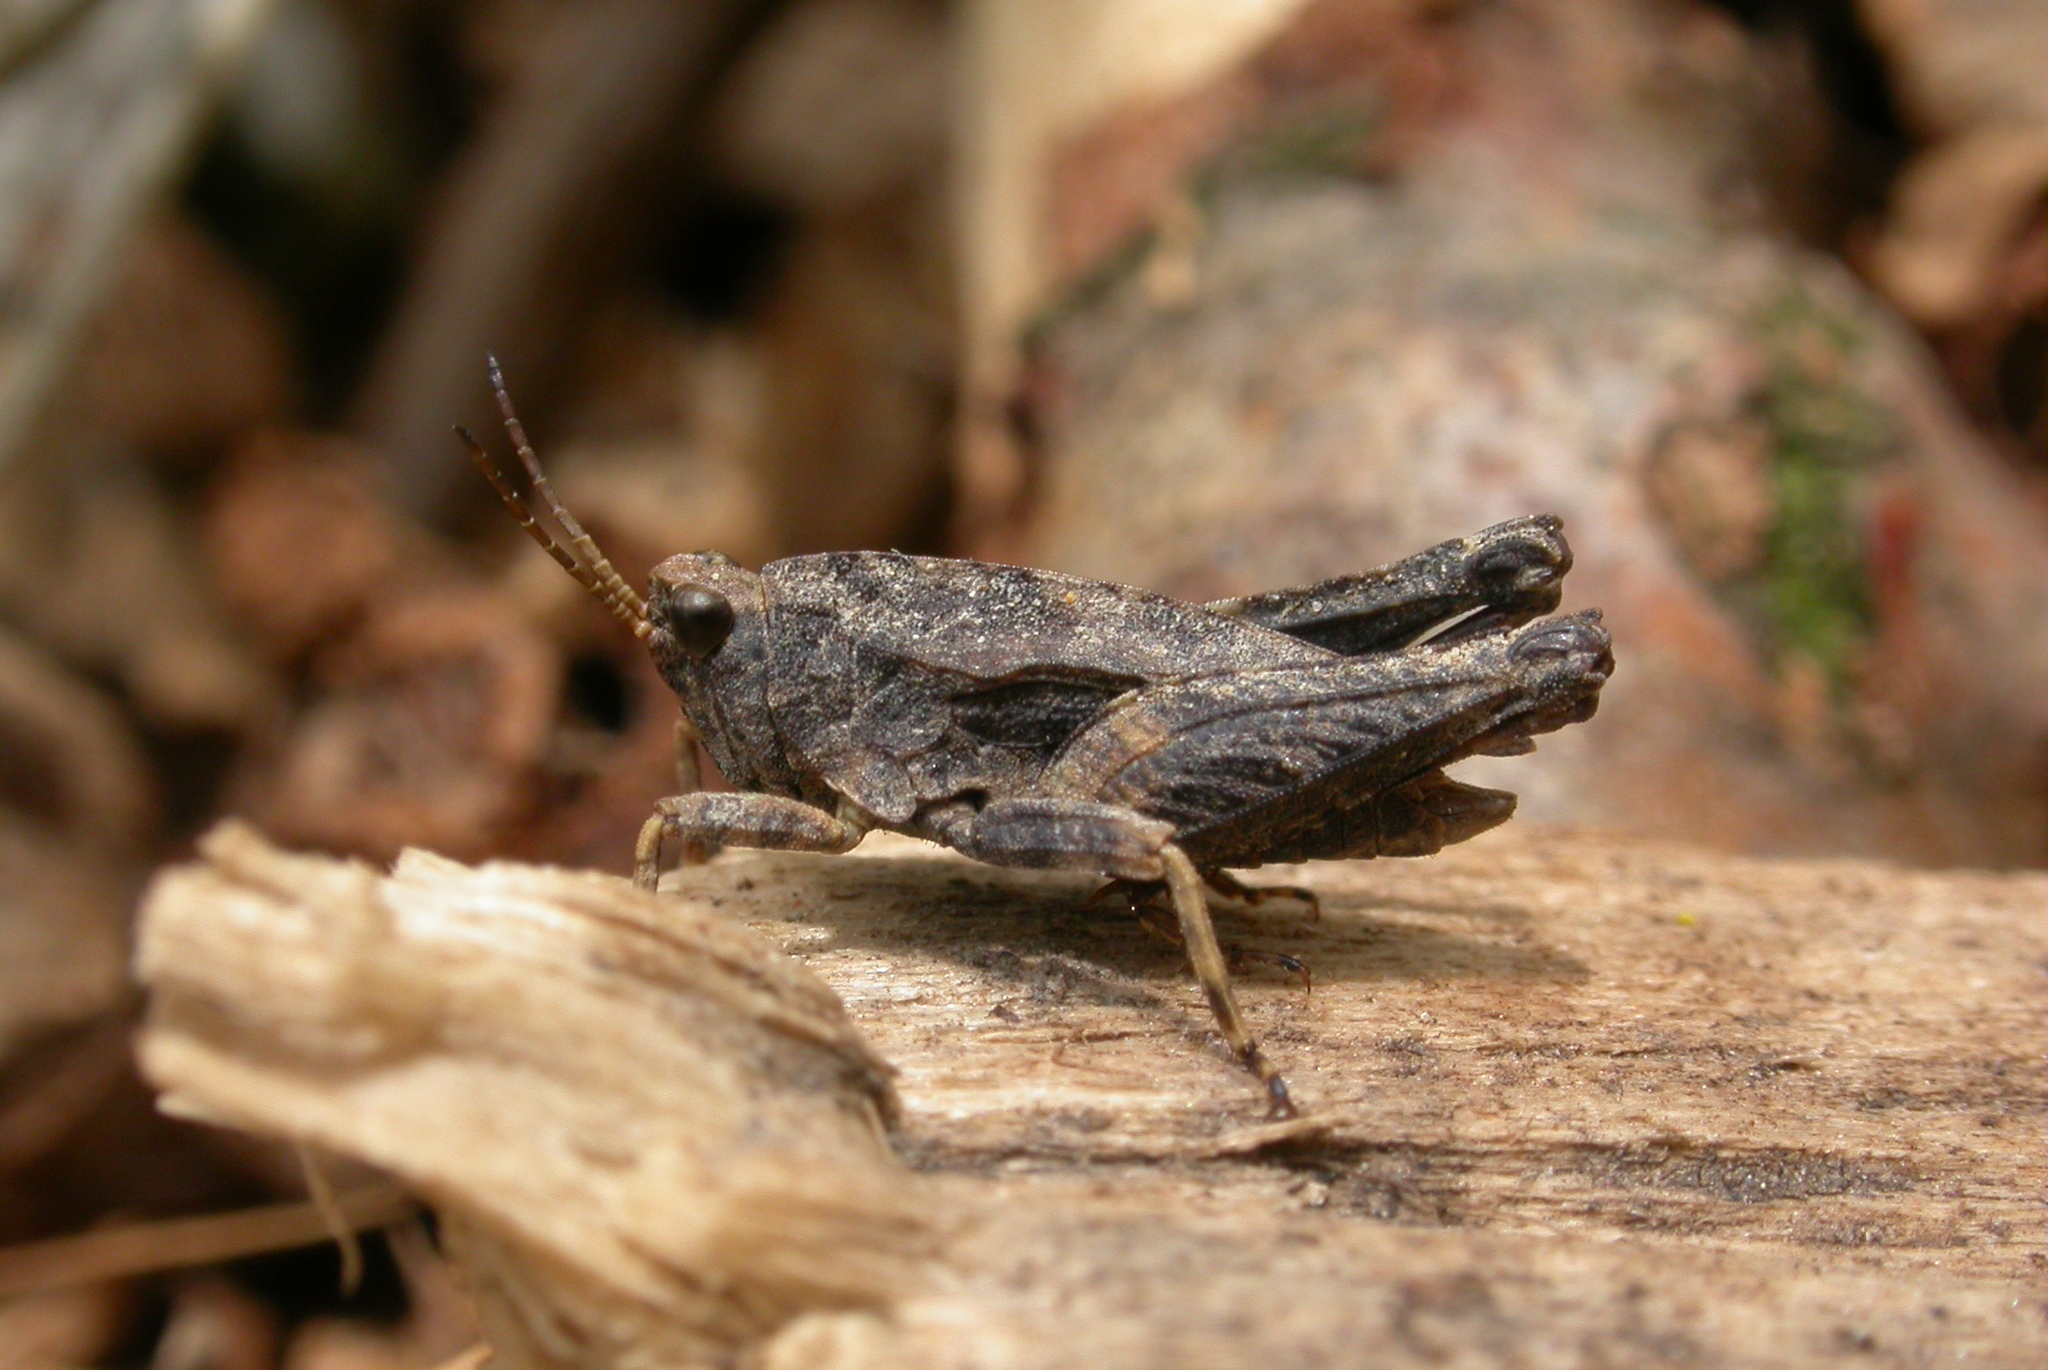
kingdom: Animalia
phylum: Arthropoda
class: Insecta
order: Orthoptera
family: Tetrigidae
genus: Tetrix
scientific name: Tetrix undulata
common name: Common groundhopper
